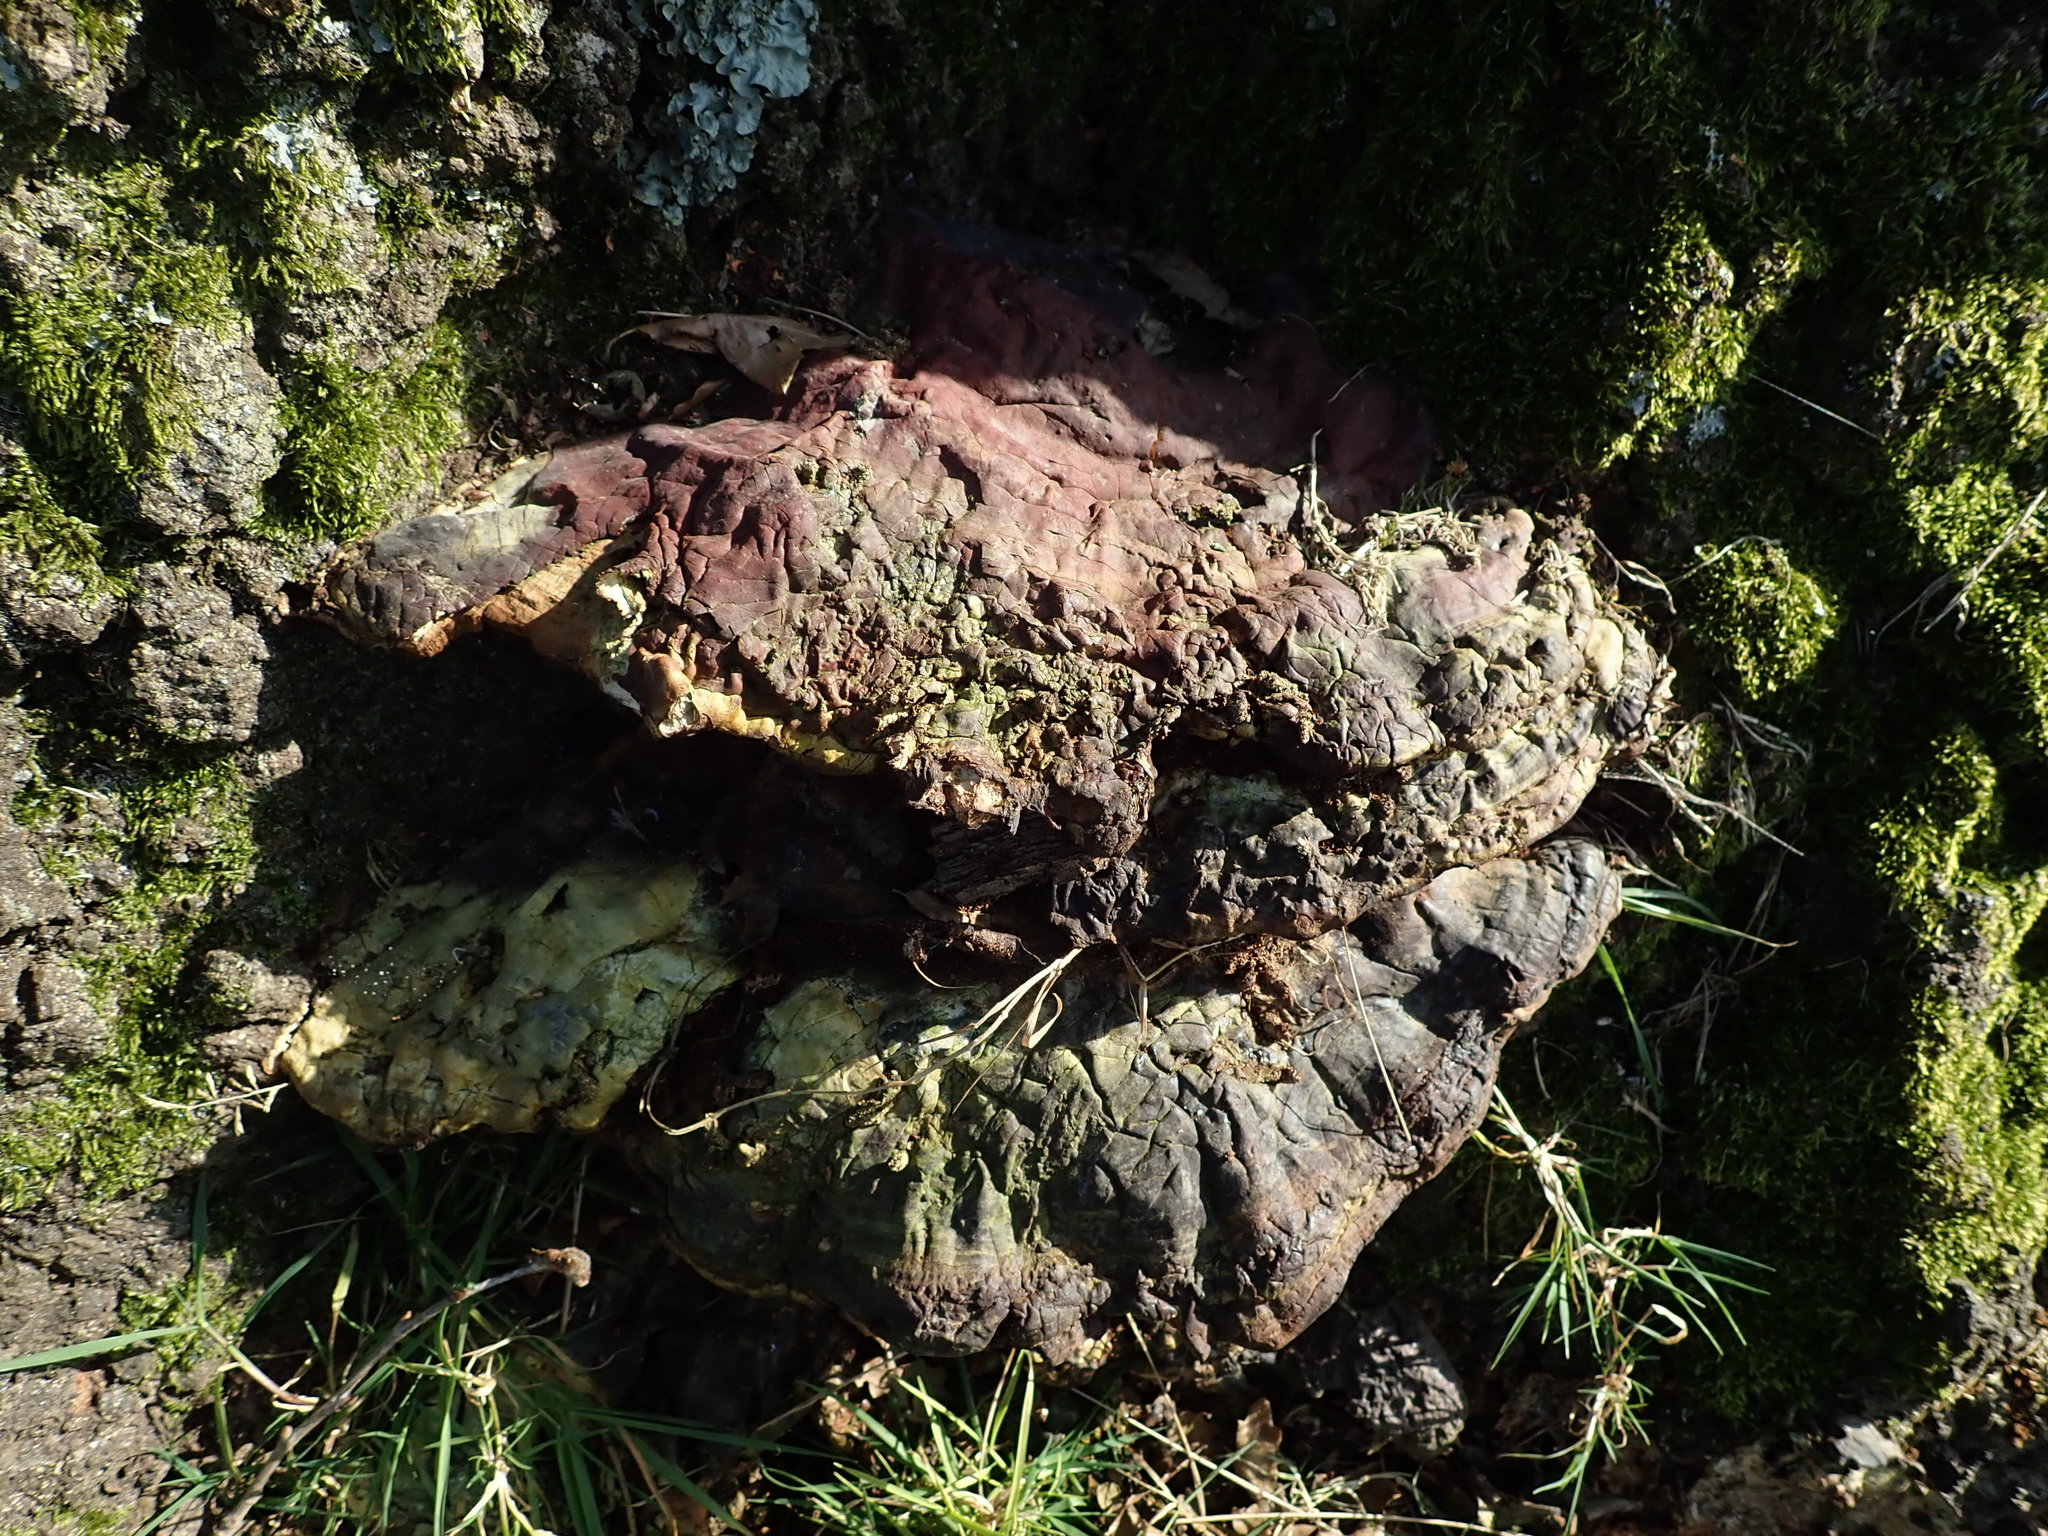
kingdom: Fungi
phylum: Basidiomycota
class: Agaricomycetes
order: Polyporales
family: Polyporaceae
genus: Ganoderma
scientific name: Ganoderma resinaceum
